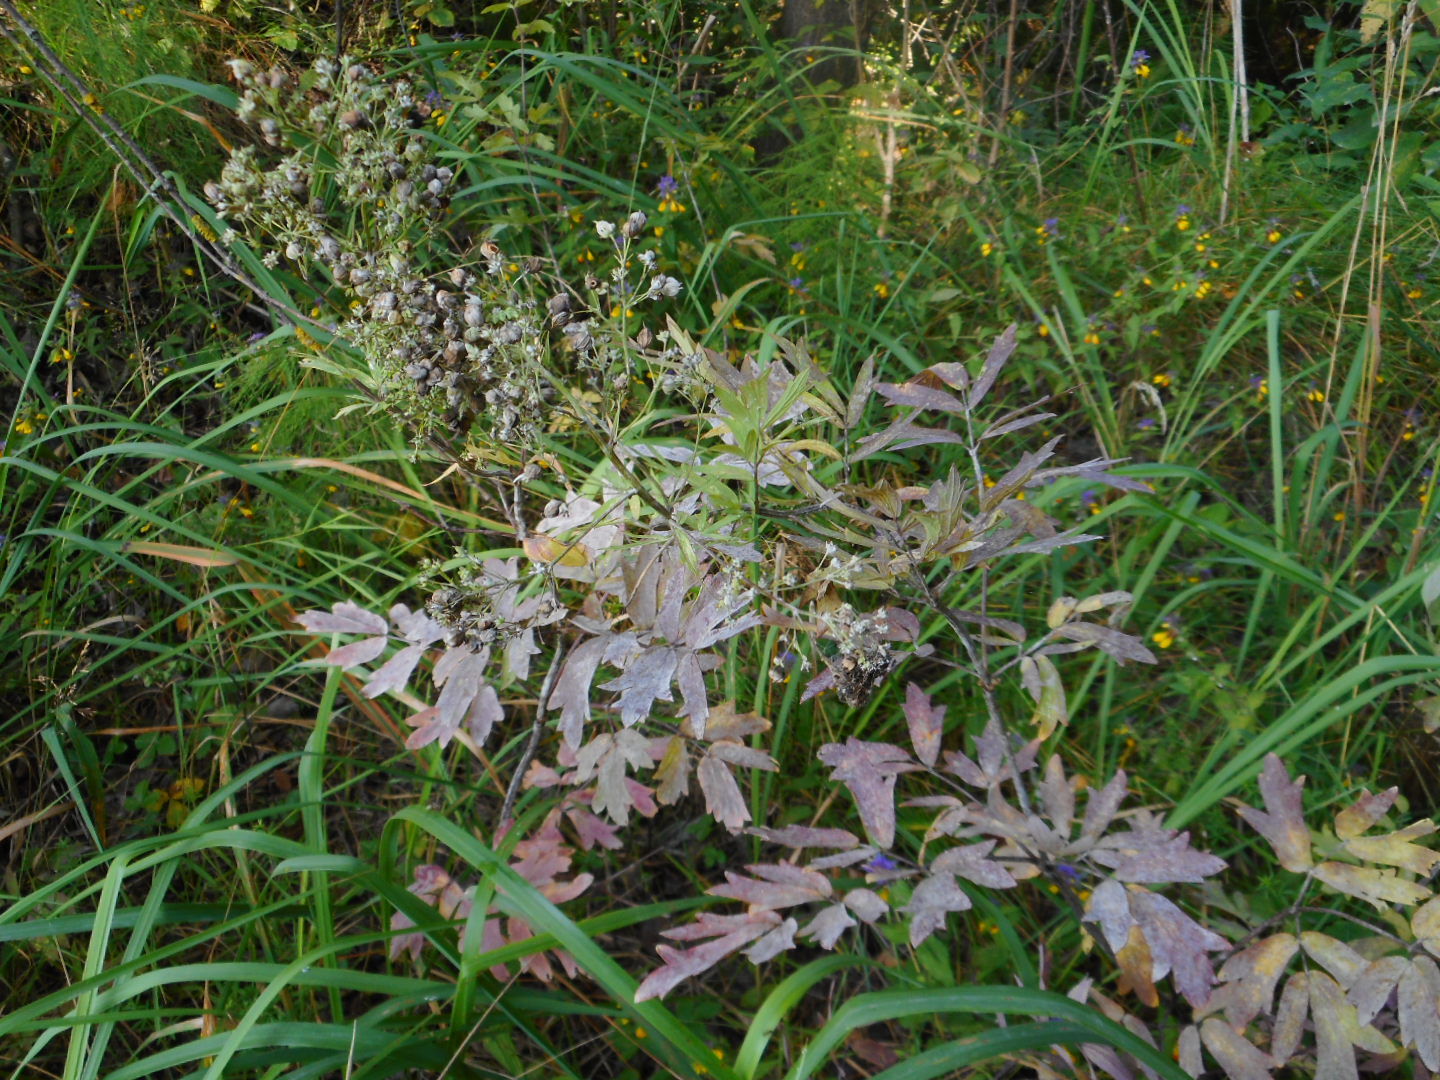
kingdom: Plantae
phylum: Tracheophyta
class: Magnoliopsida
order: Ranunculales
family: Ranunculaceae
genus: Thalictrum
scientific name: Thalictrum flavum
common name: Common meadow-rue
